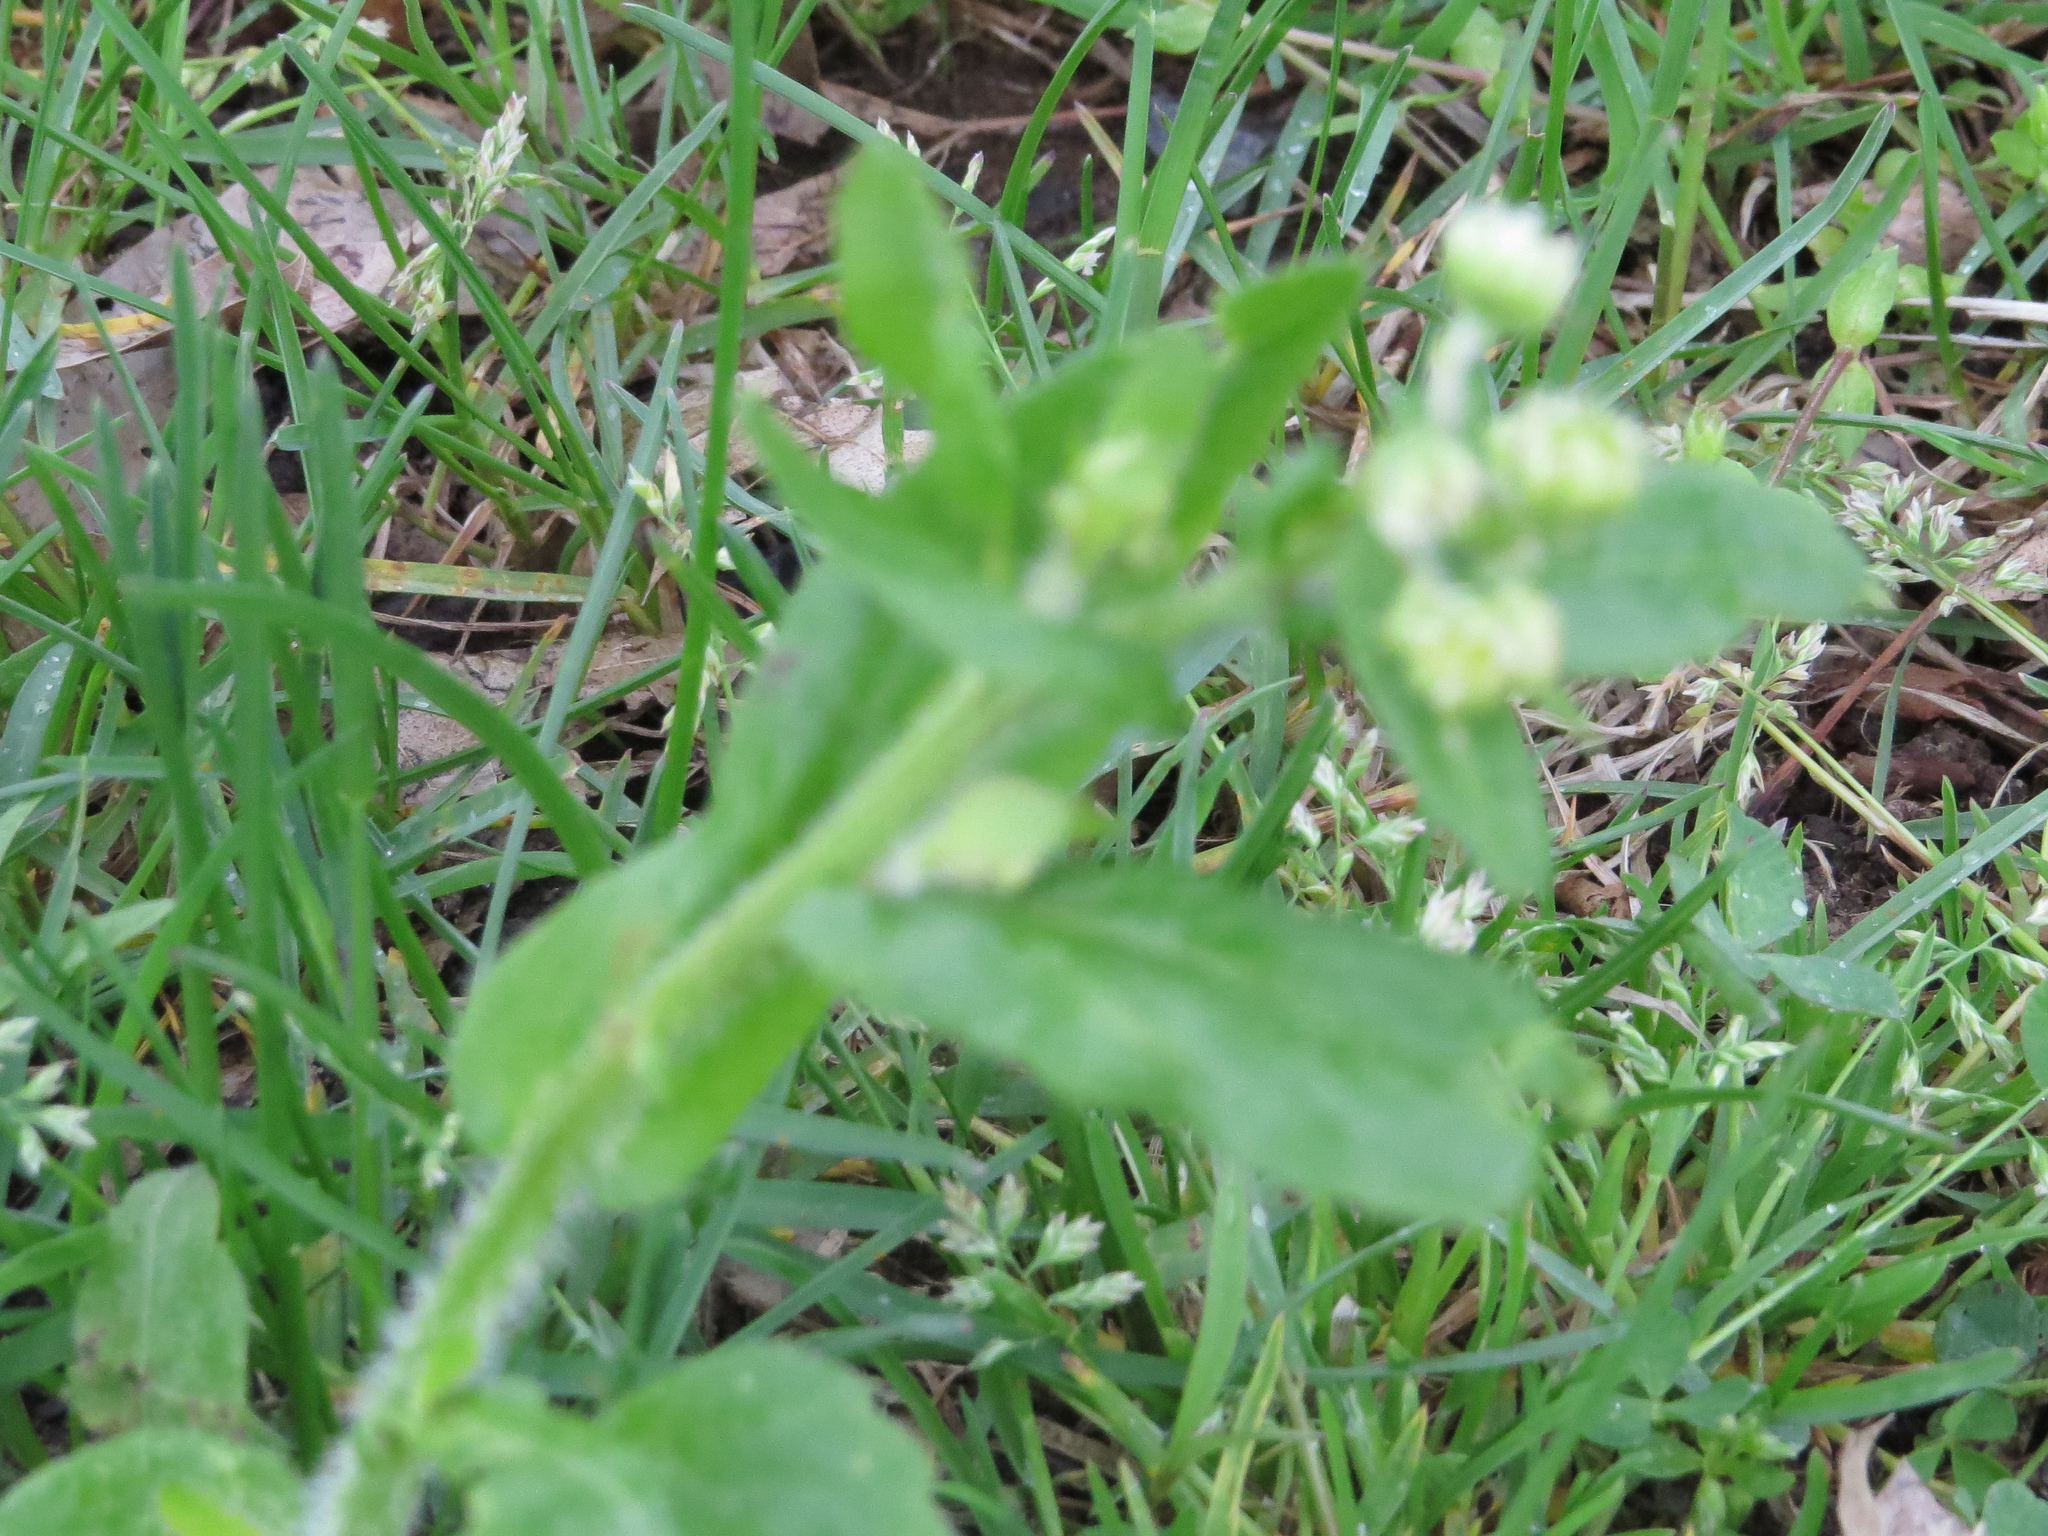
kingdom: Plantae
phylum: Tracheophyta
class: Magnoliopsida
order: Asterales
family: Asteraceae
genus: Erigeron
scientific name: Erigeron philadelphicus
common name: Robin's-plantain
